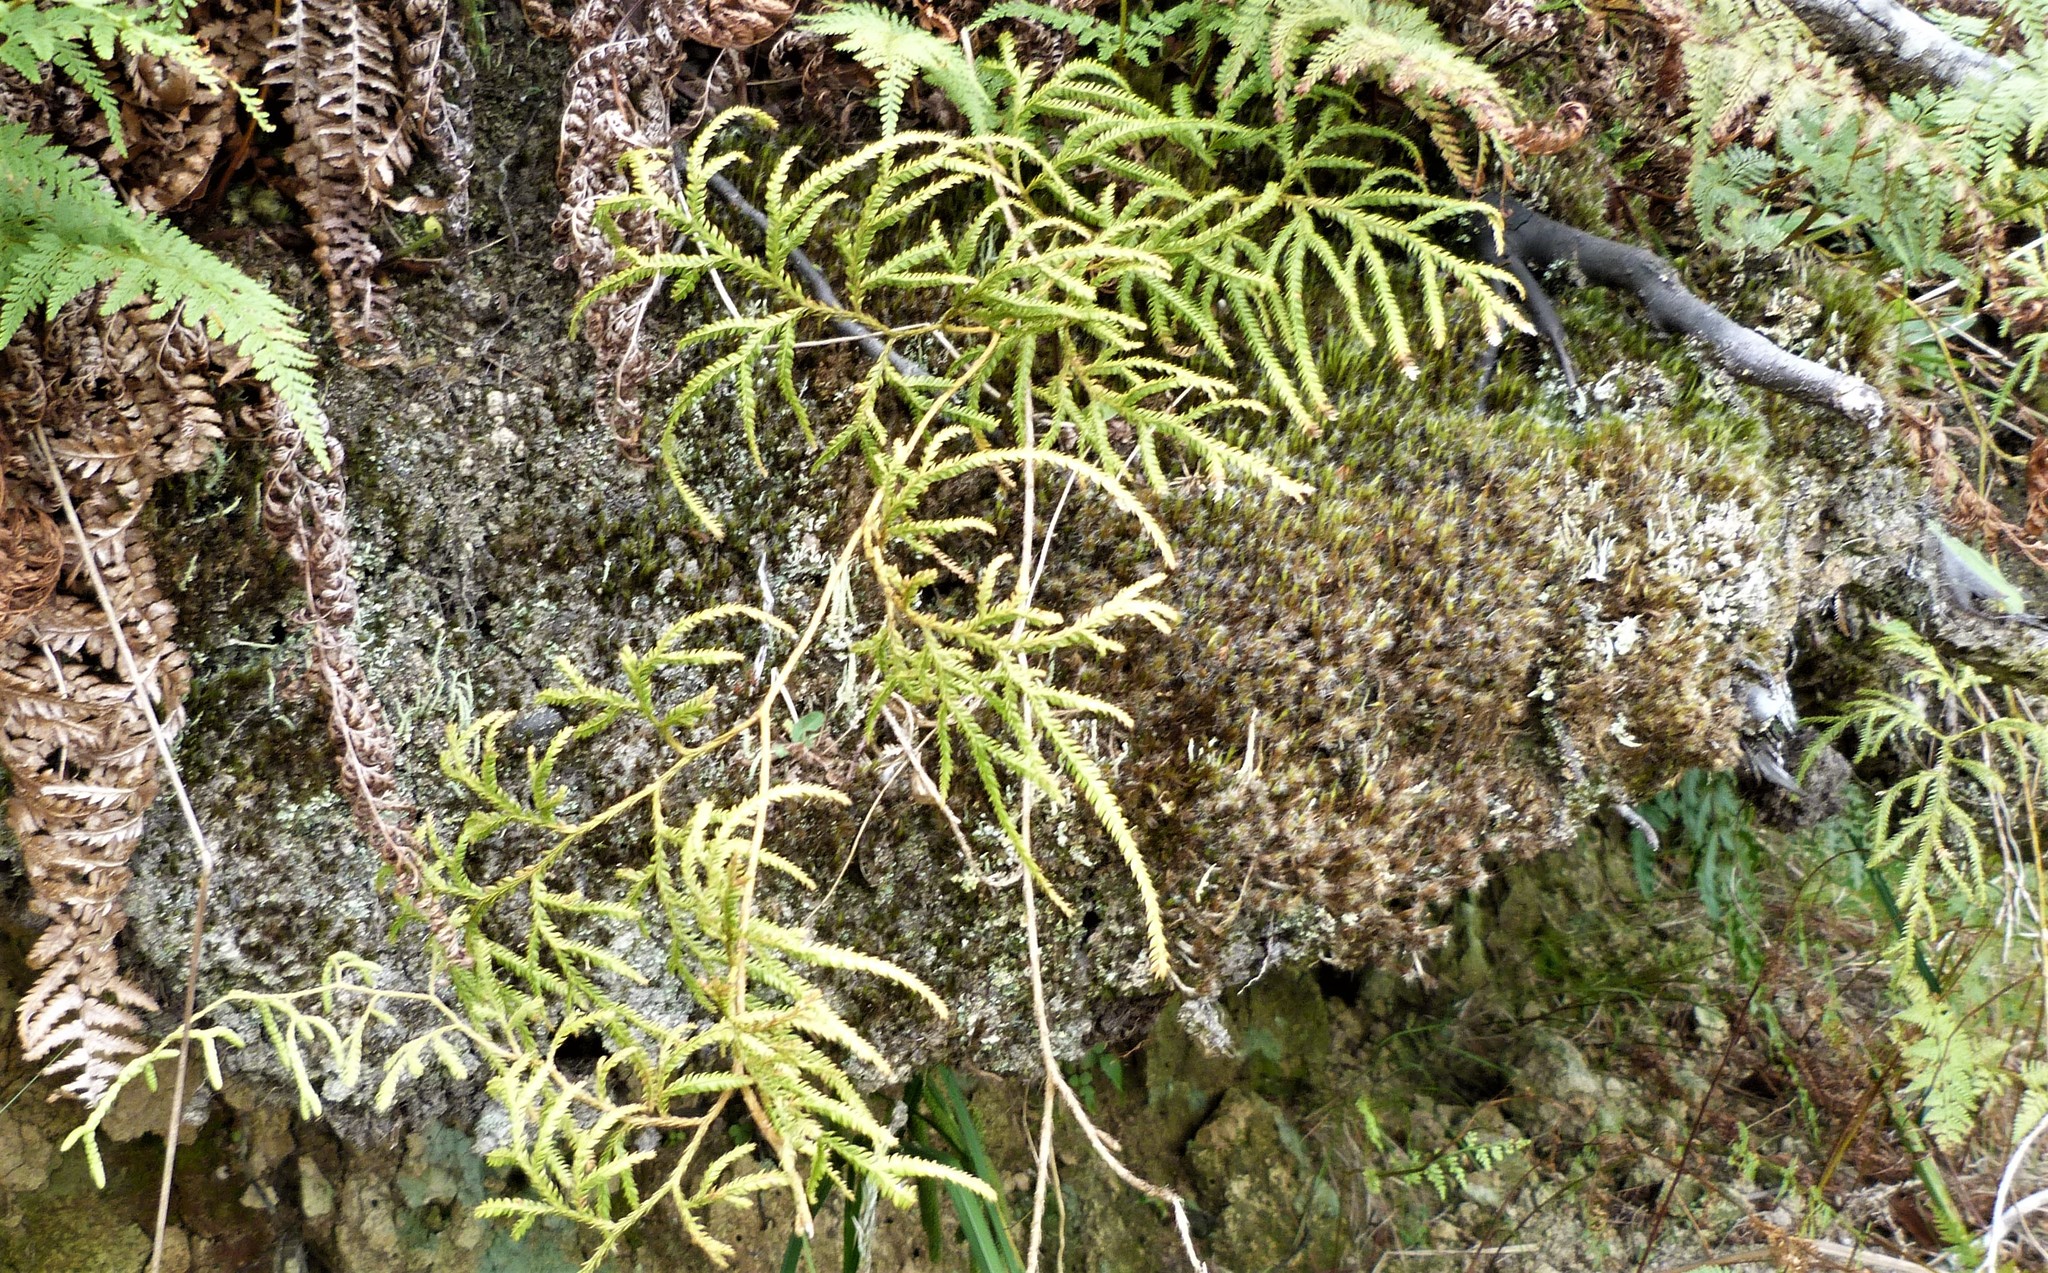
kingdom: Plantae
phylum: Tracheophyta
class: Lycopodiopsida
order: Lycopodiales
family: Lycopodiaceae
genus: Lycopodium
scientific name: Lycopodium volubile
